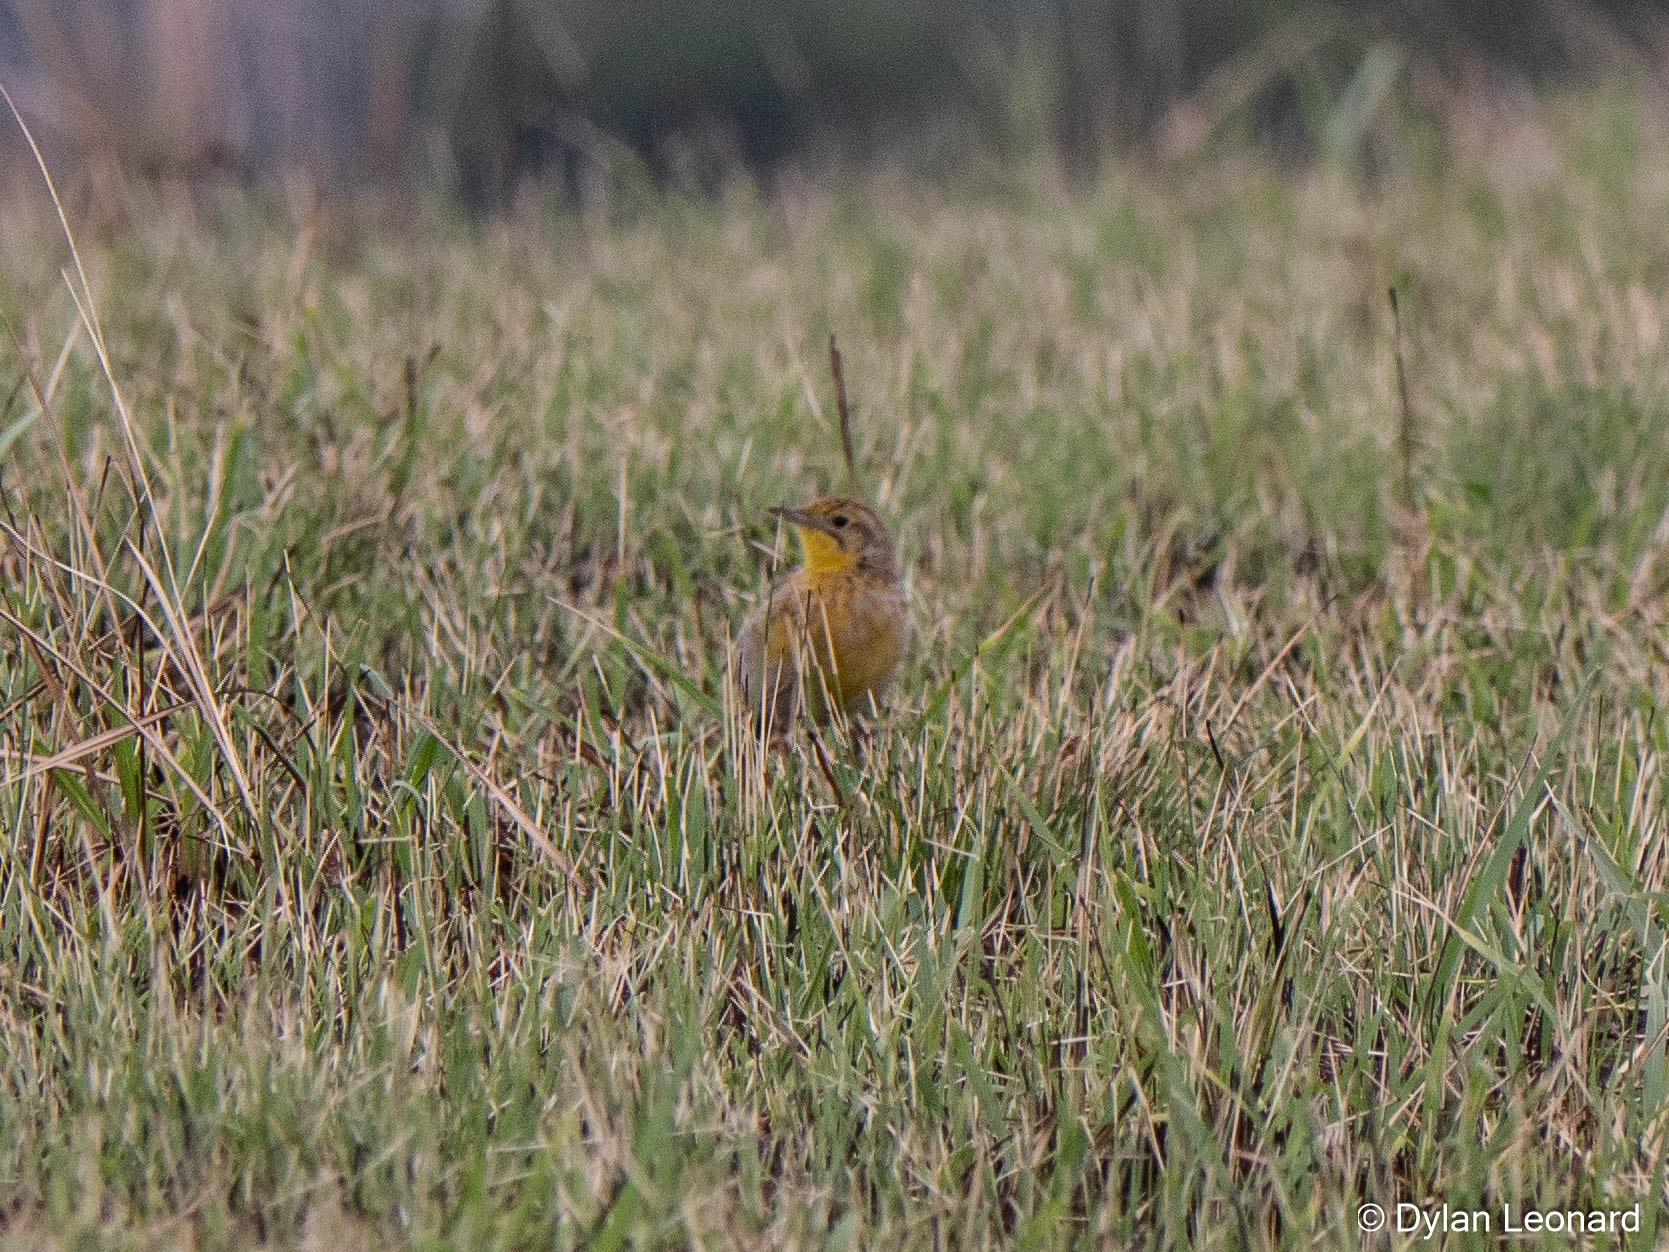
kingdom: Animalia
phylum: Chordata
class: Aves
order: Passeriformes
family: Motacillidae
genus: Macronyx
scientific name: Macronyx croceus
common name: Yellow-throated longclaw
